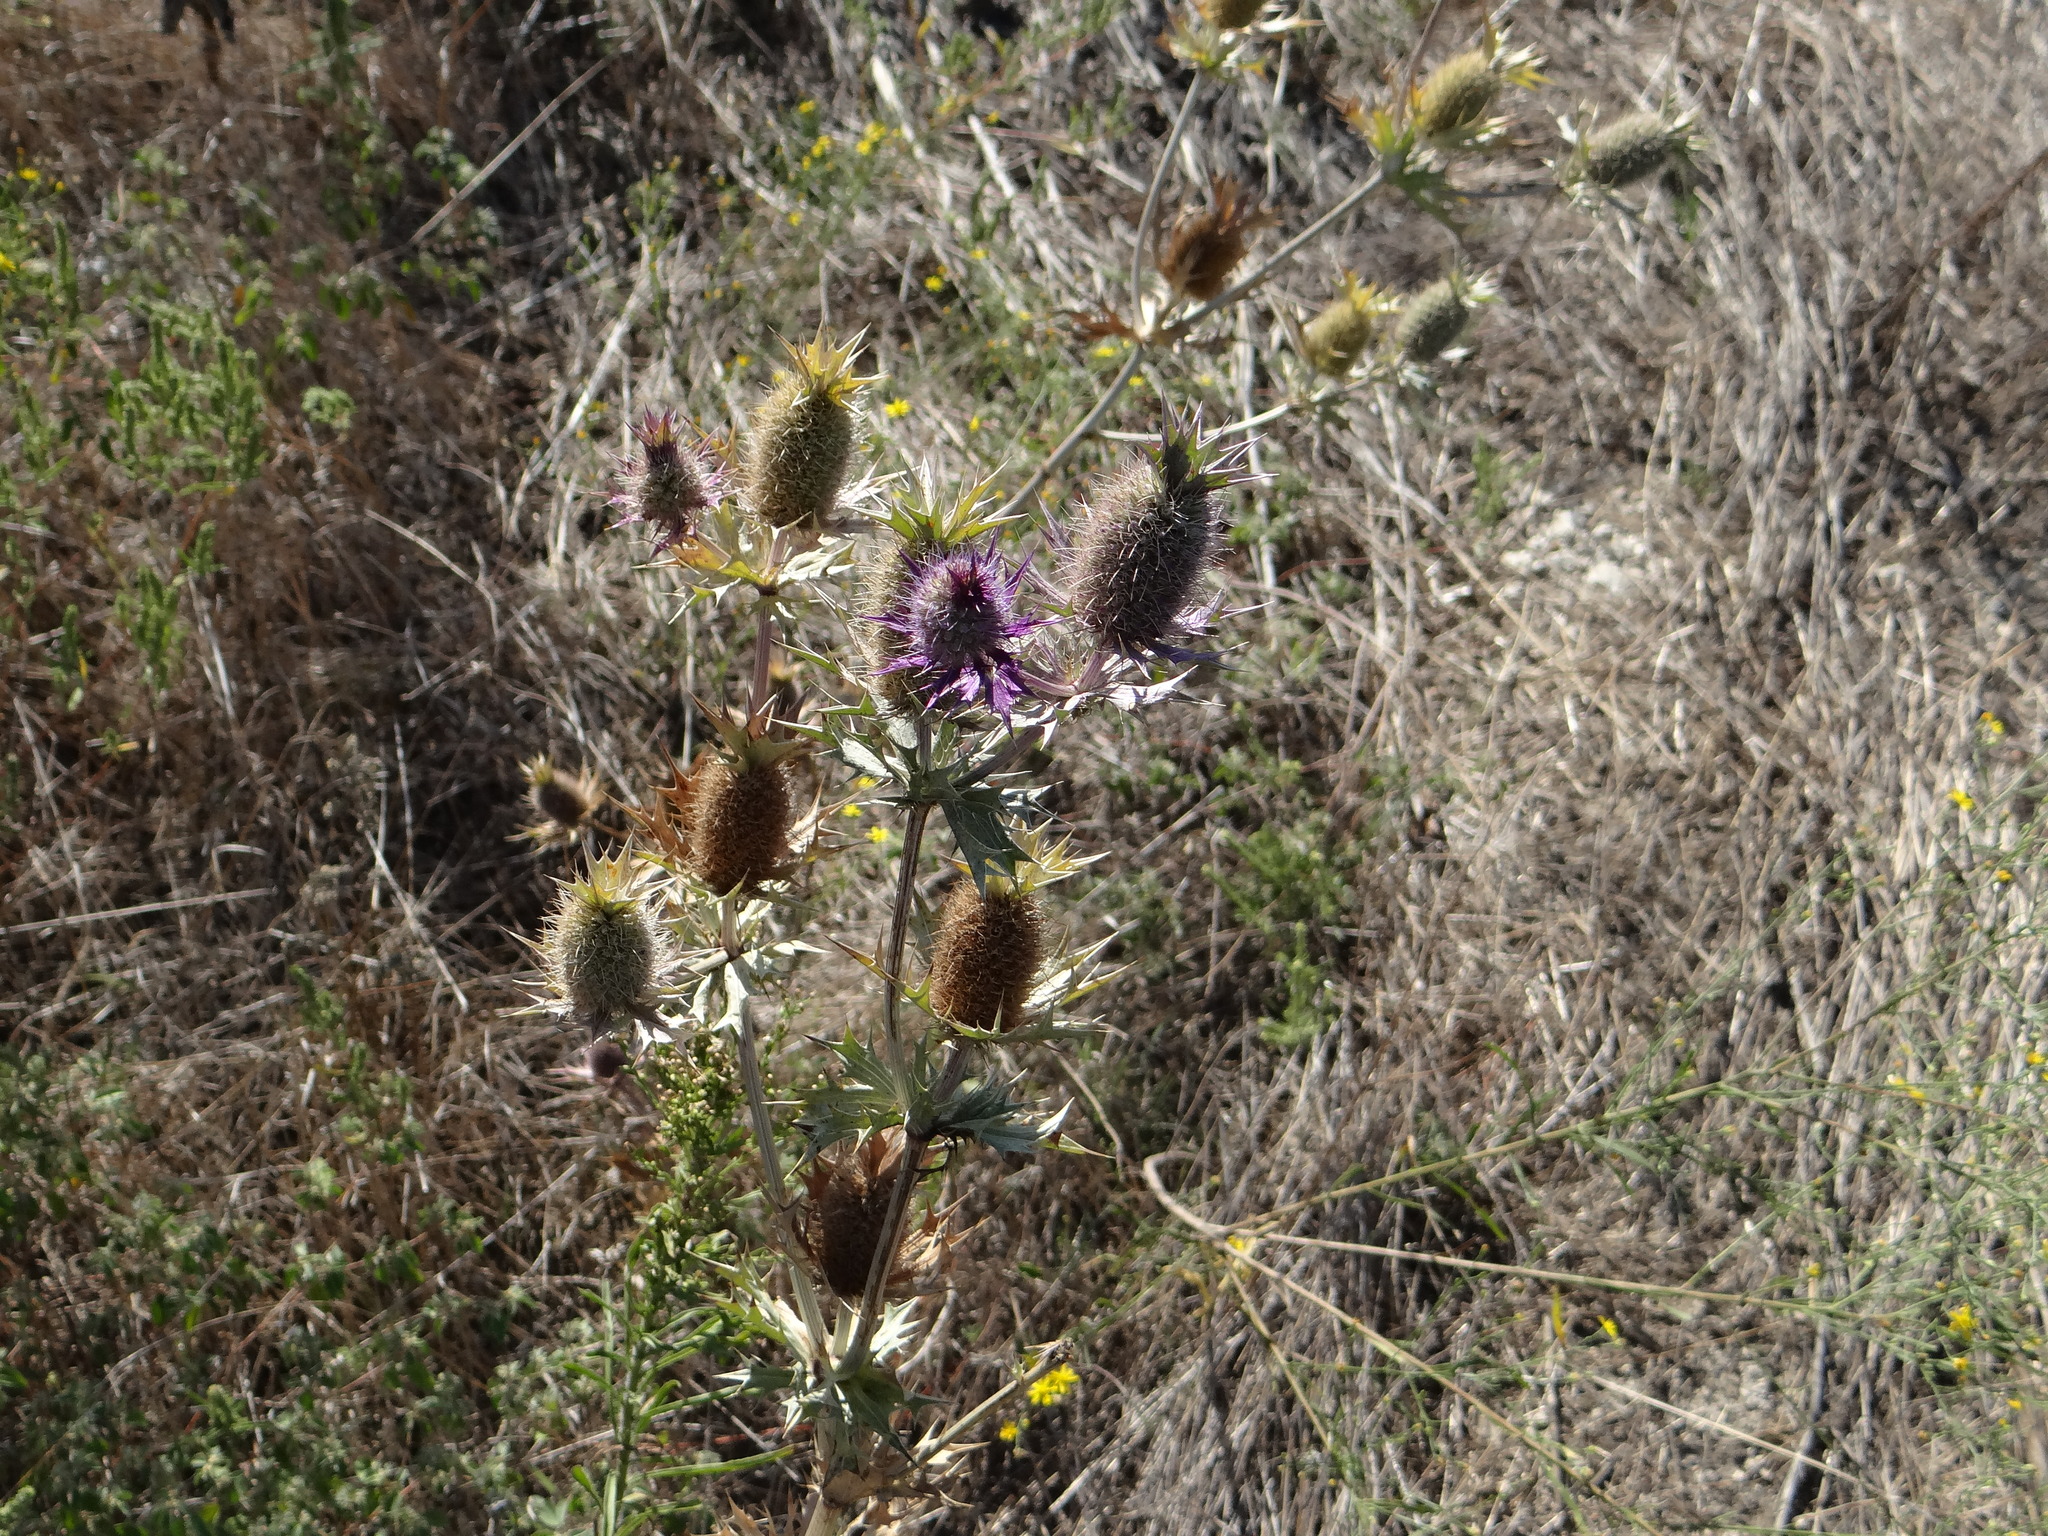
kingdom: Plantae
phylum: Tracheophyta
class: Magnoliopsida
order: Apiales
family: Apiaceae
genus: Eryngium
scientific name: Eryngium leavenworthii
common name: Leavenworth's eryngo
